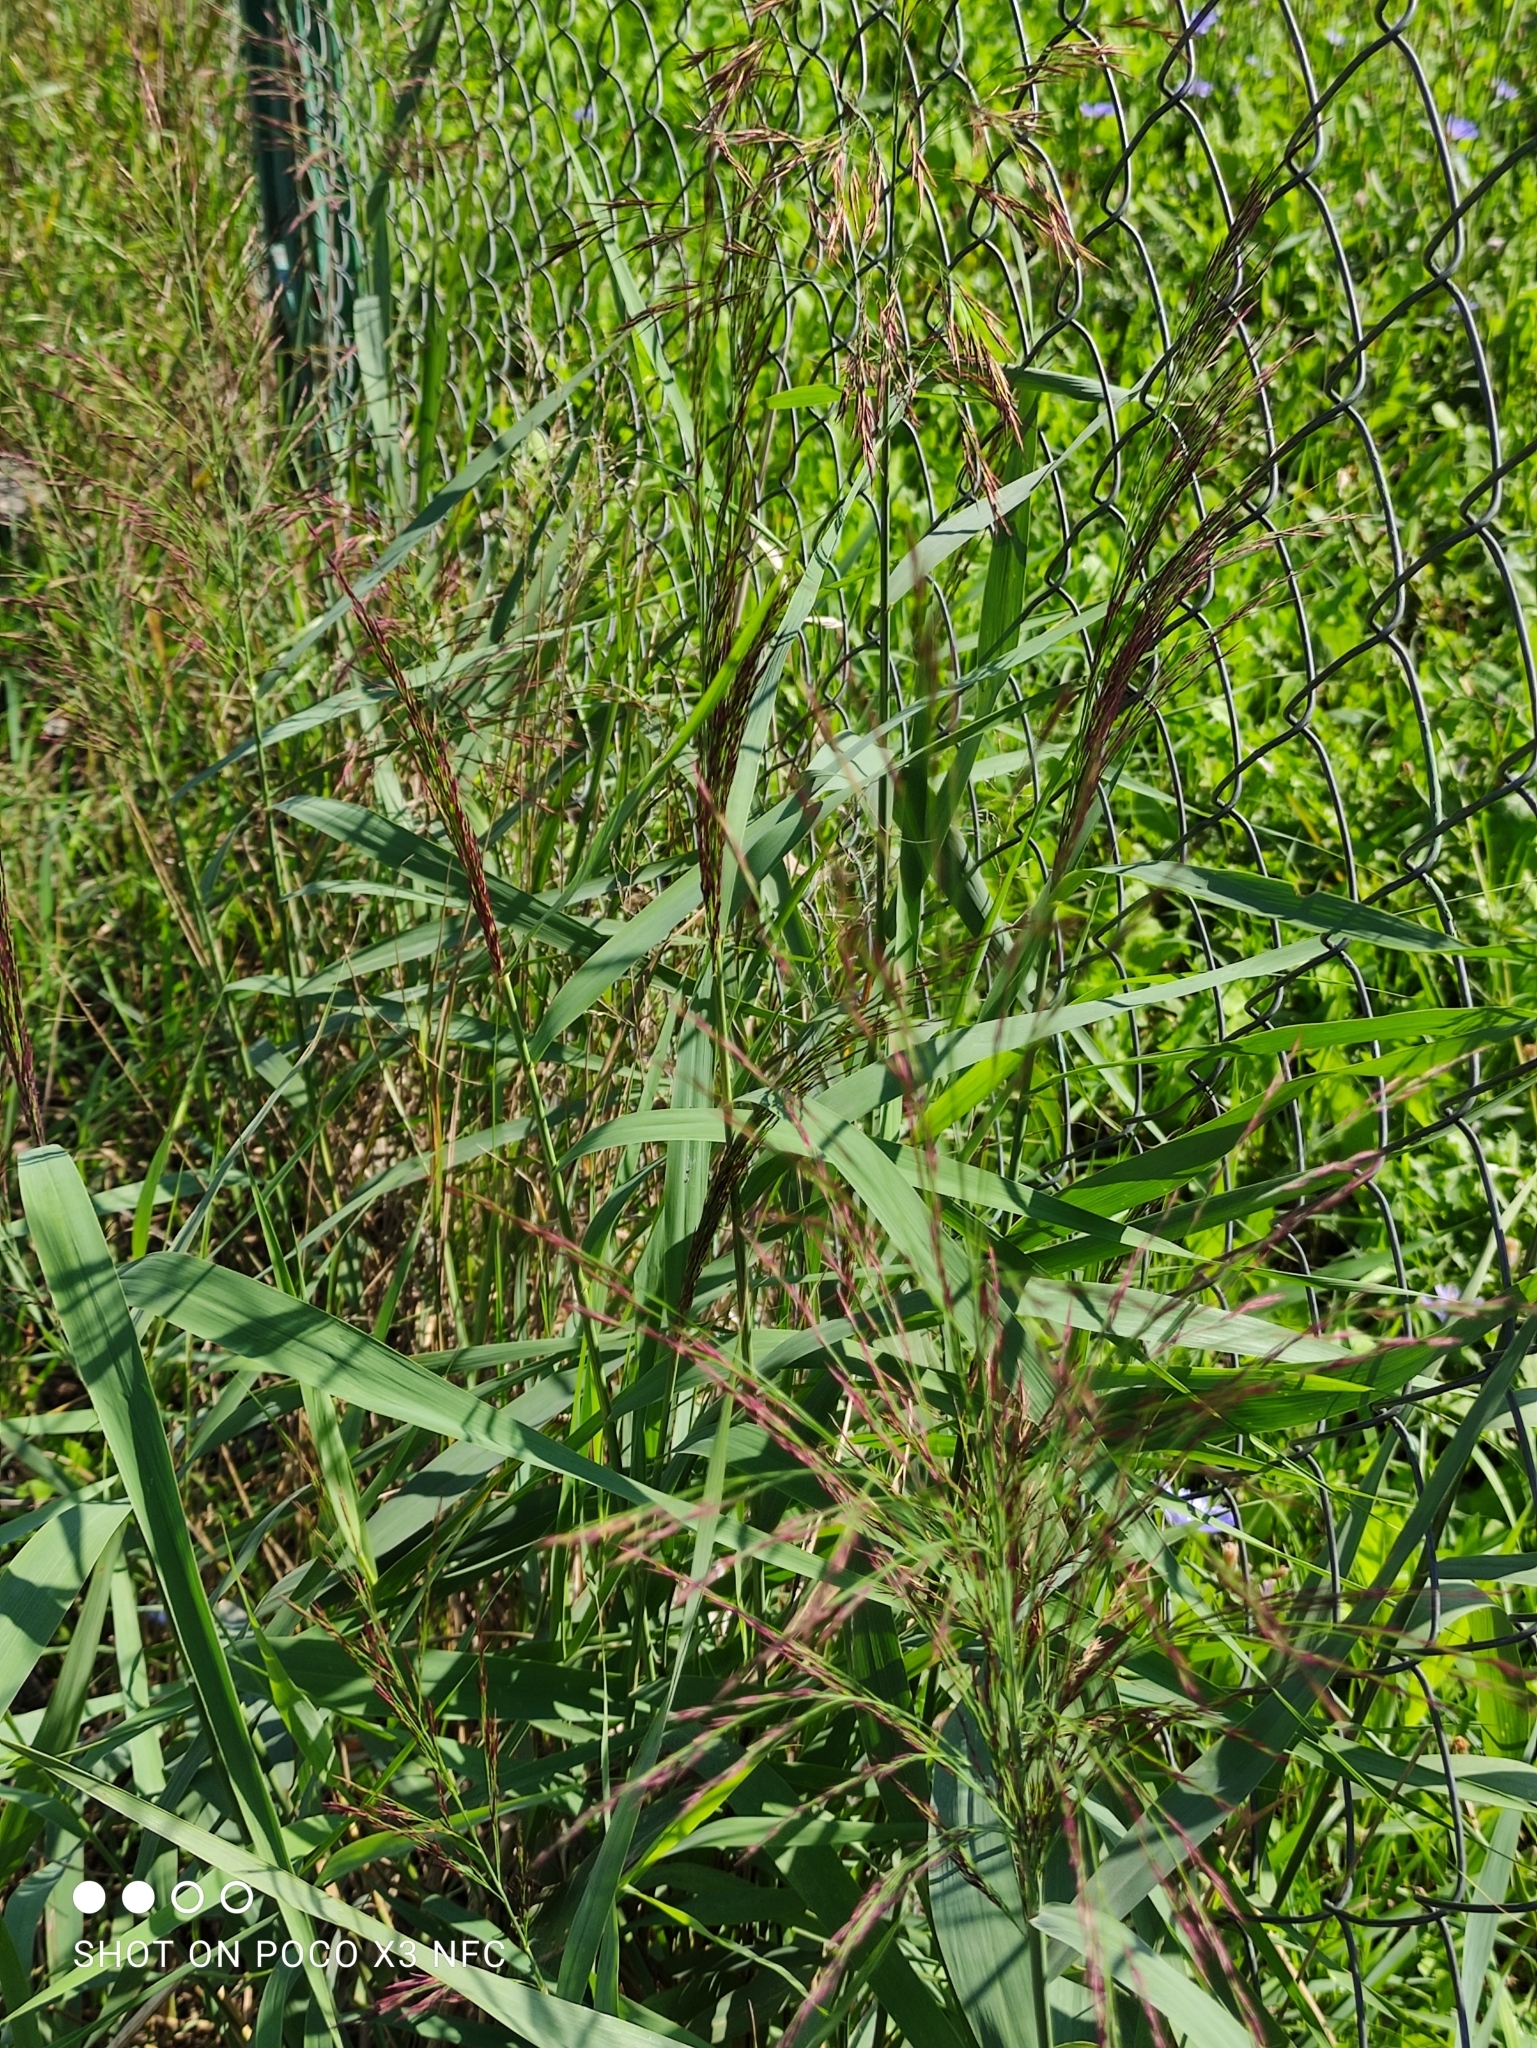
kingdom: Plantae
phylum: Tracheophyta
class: Liliopsida
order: Poales
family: Poaceae
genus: Phragmites
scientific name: Phragmites australis
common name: Common reed
